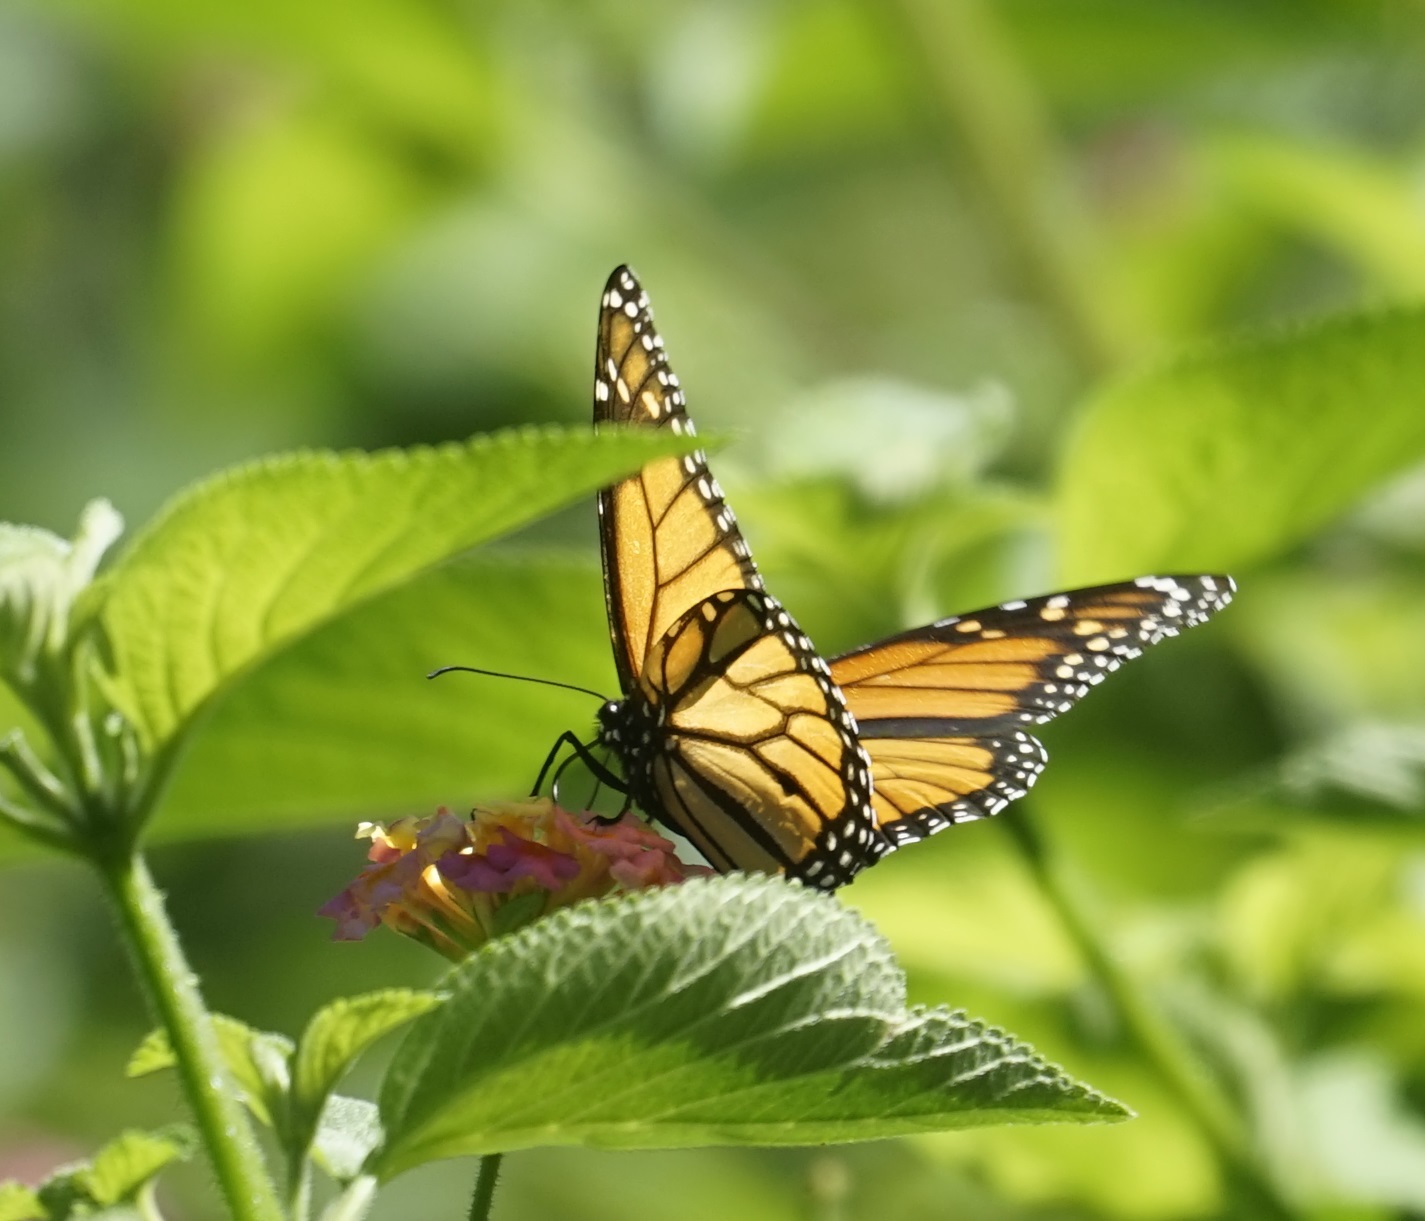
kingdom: Animalia
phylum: Arthropoda
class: Insecta
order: Lepidoptera
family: Nymphalidae
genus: Danaus
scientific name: Danaus plexippus
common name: Monarch
